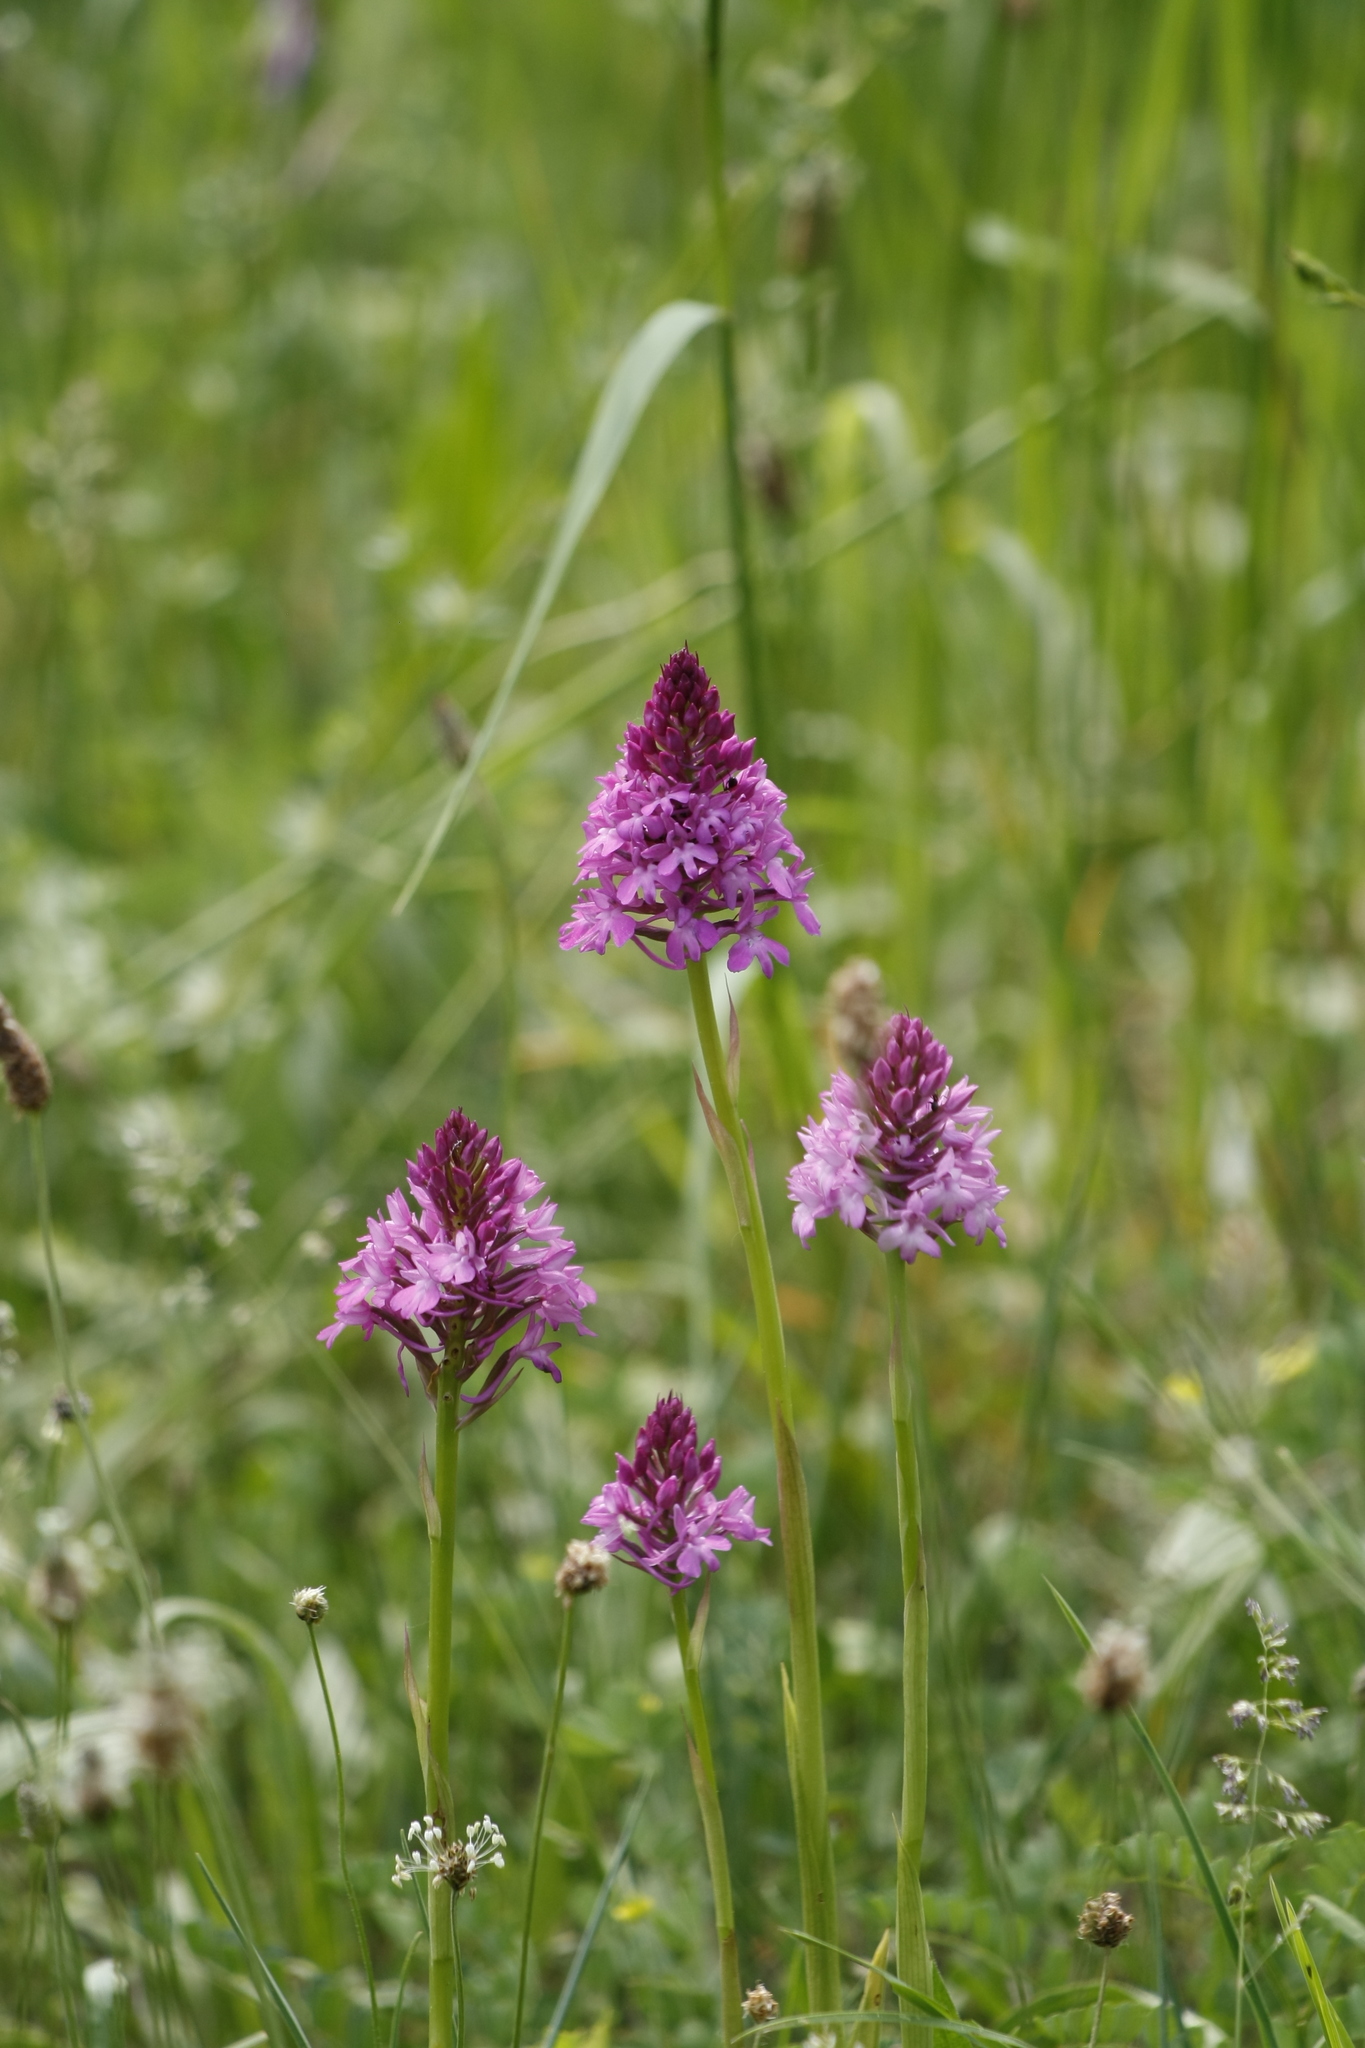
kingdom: Plantae
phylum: Tracheophyta
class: Liliopsida
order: Asparagales
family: Orchidaceae
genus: Anacamptis
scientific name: Anacamptis pyramidalis
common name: Pyramidal orchid
